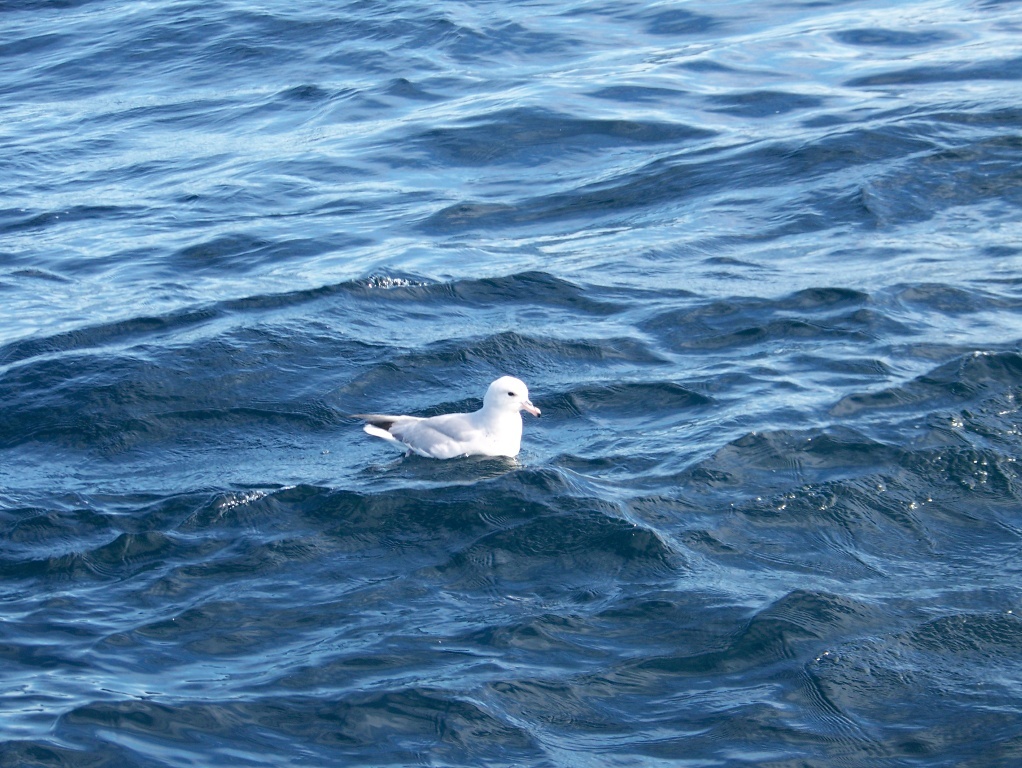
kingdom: Animalia
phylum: Chordata
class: Aves
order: Procellariiformes
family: Procellariidae
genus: Fulmarus
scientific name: Fulmarus glacialoides
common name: Southern fulmar
